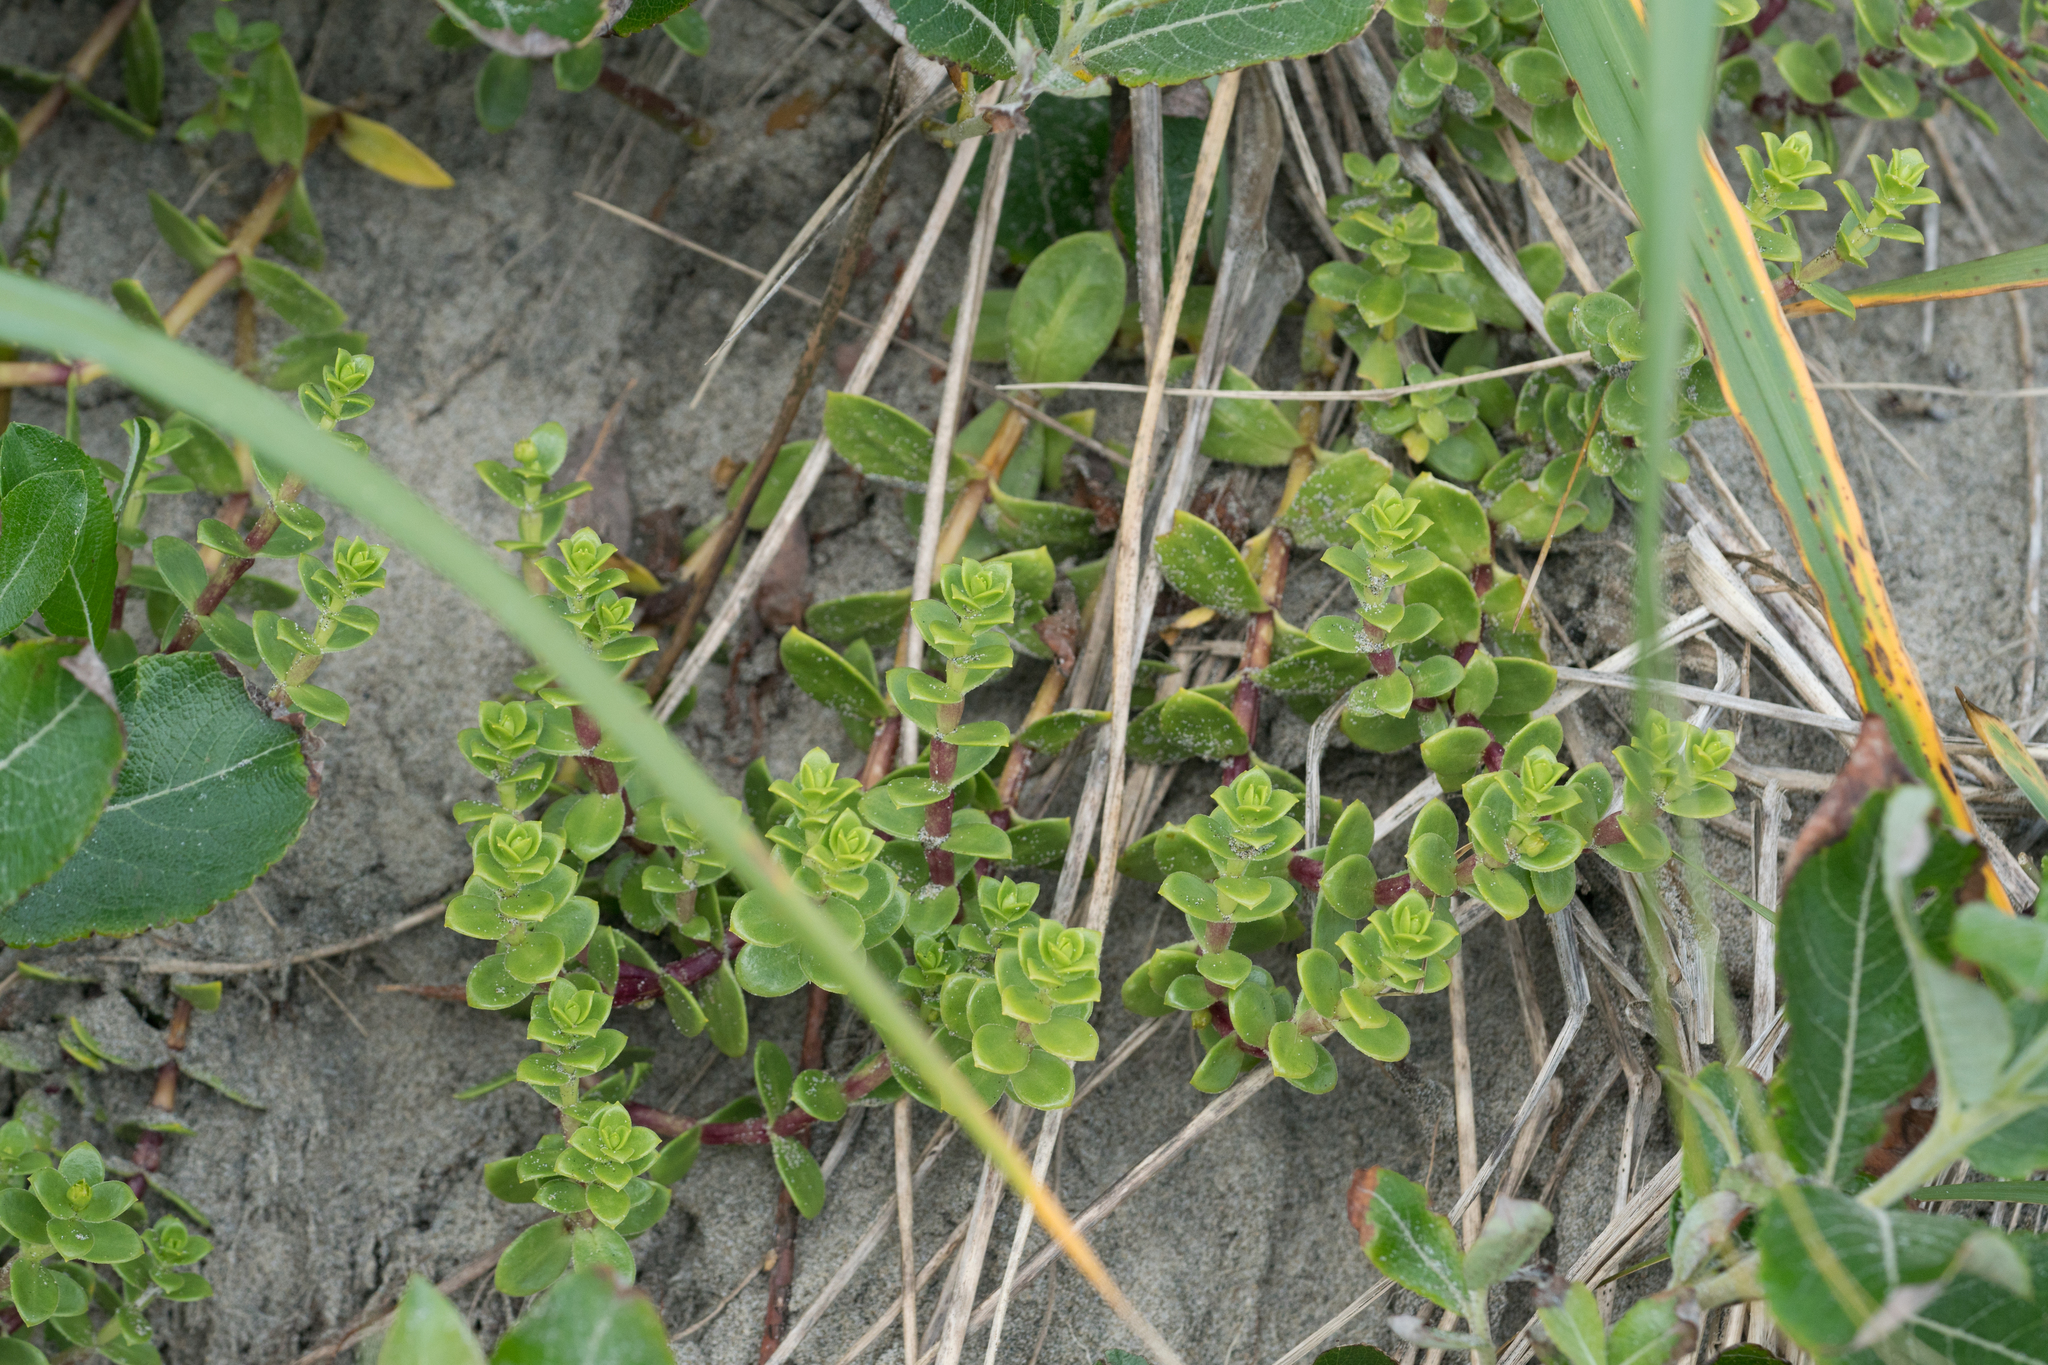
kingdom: Plantae
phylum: Tracheophyta
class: Magnoliopsida
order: Caryophyllales
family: Caryophyllaceae
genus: Honckenya
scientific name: Honckenya peploides
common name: Sea sandwort
